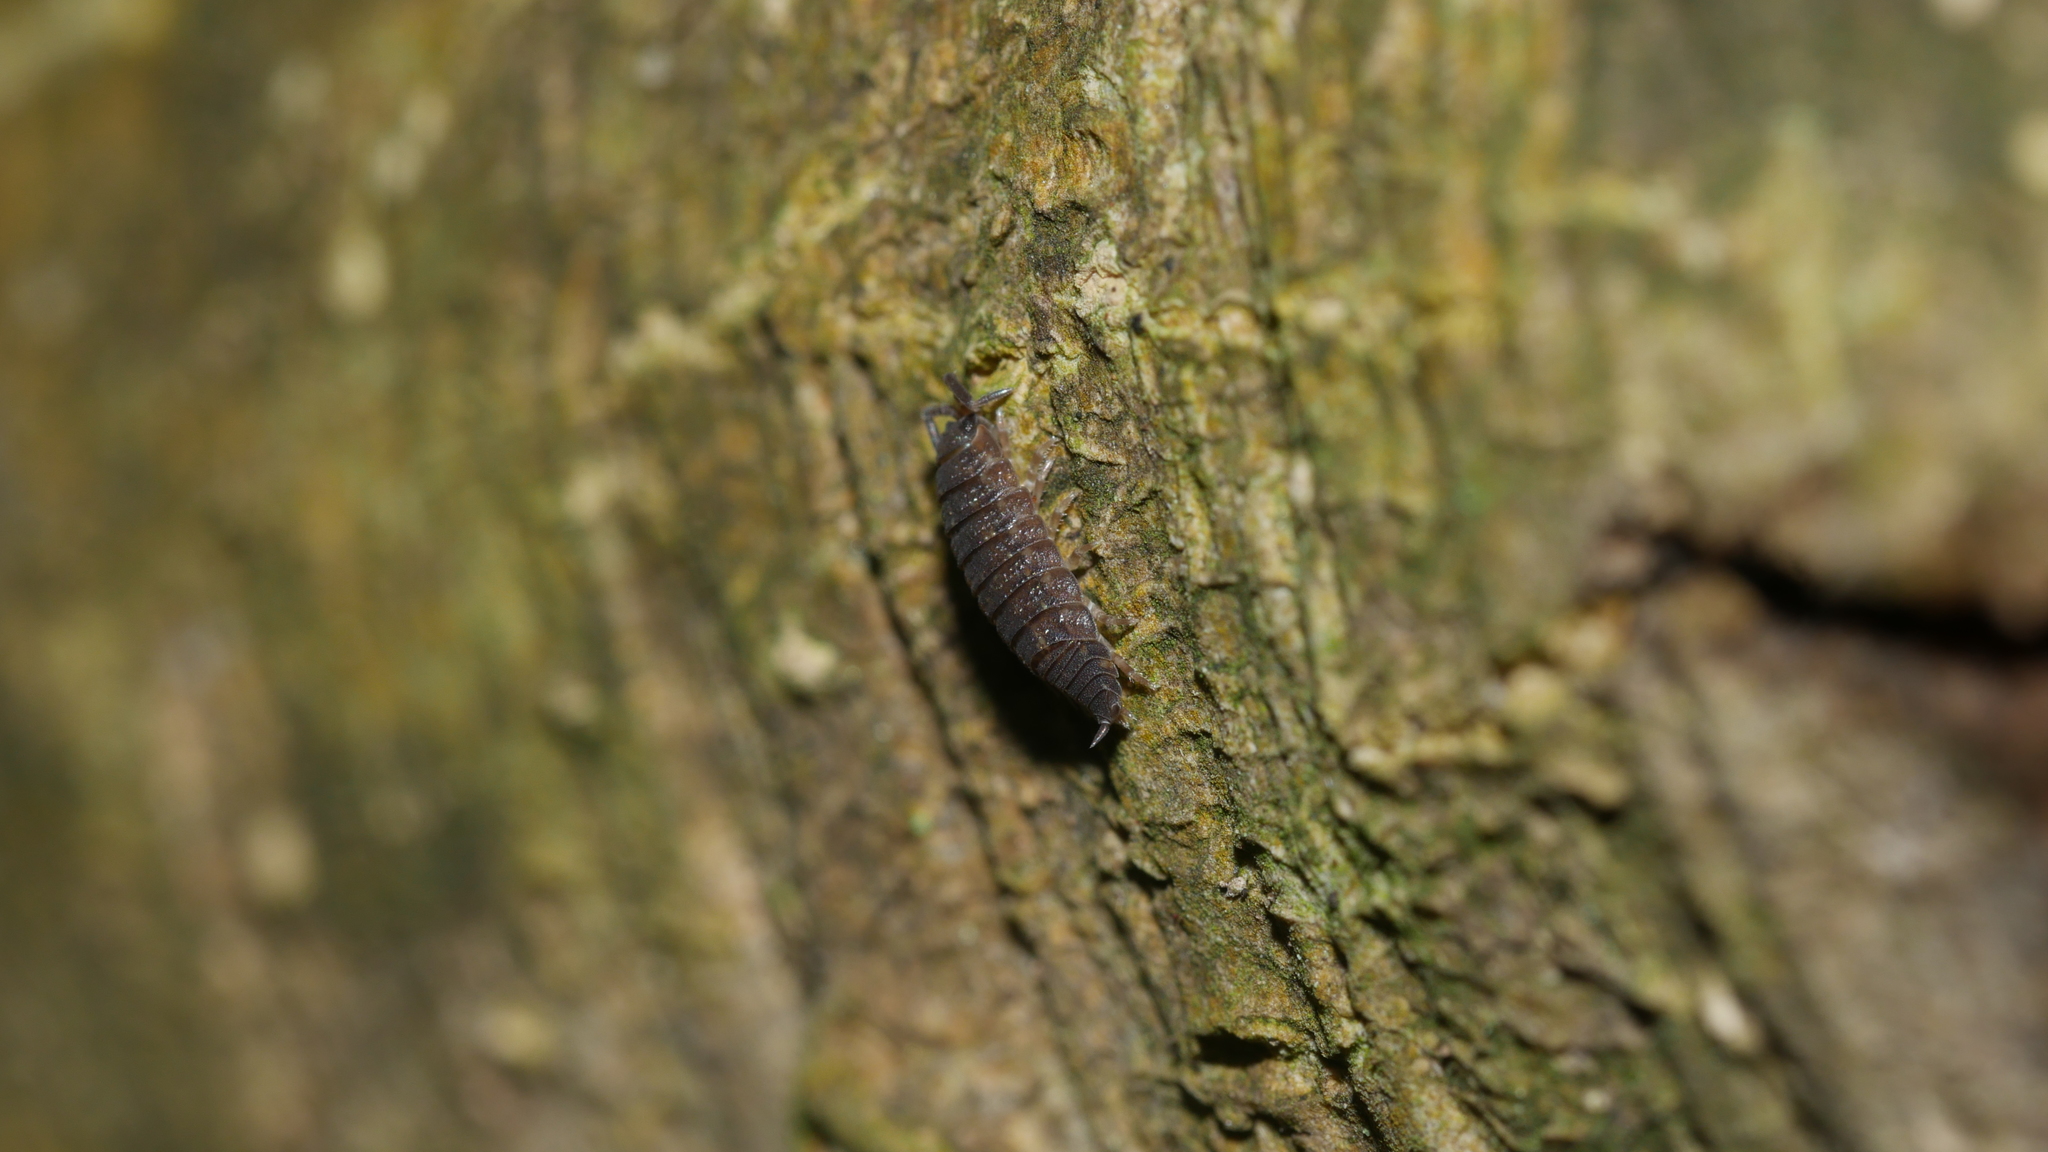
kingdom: Animalia
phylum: Arthropoda
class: Malacostraca
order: Isopoda
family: Porcellionidae
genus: Porcellio
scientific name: Porcellio scaber
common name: Common rough woodlouse
